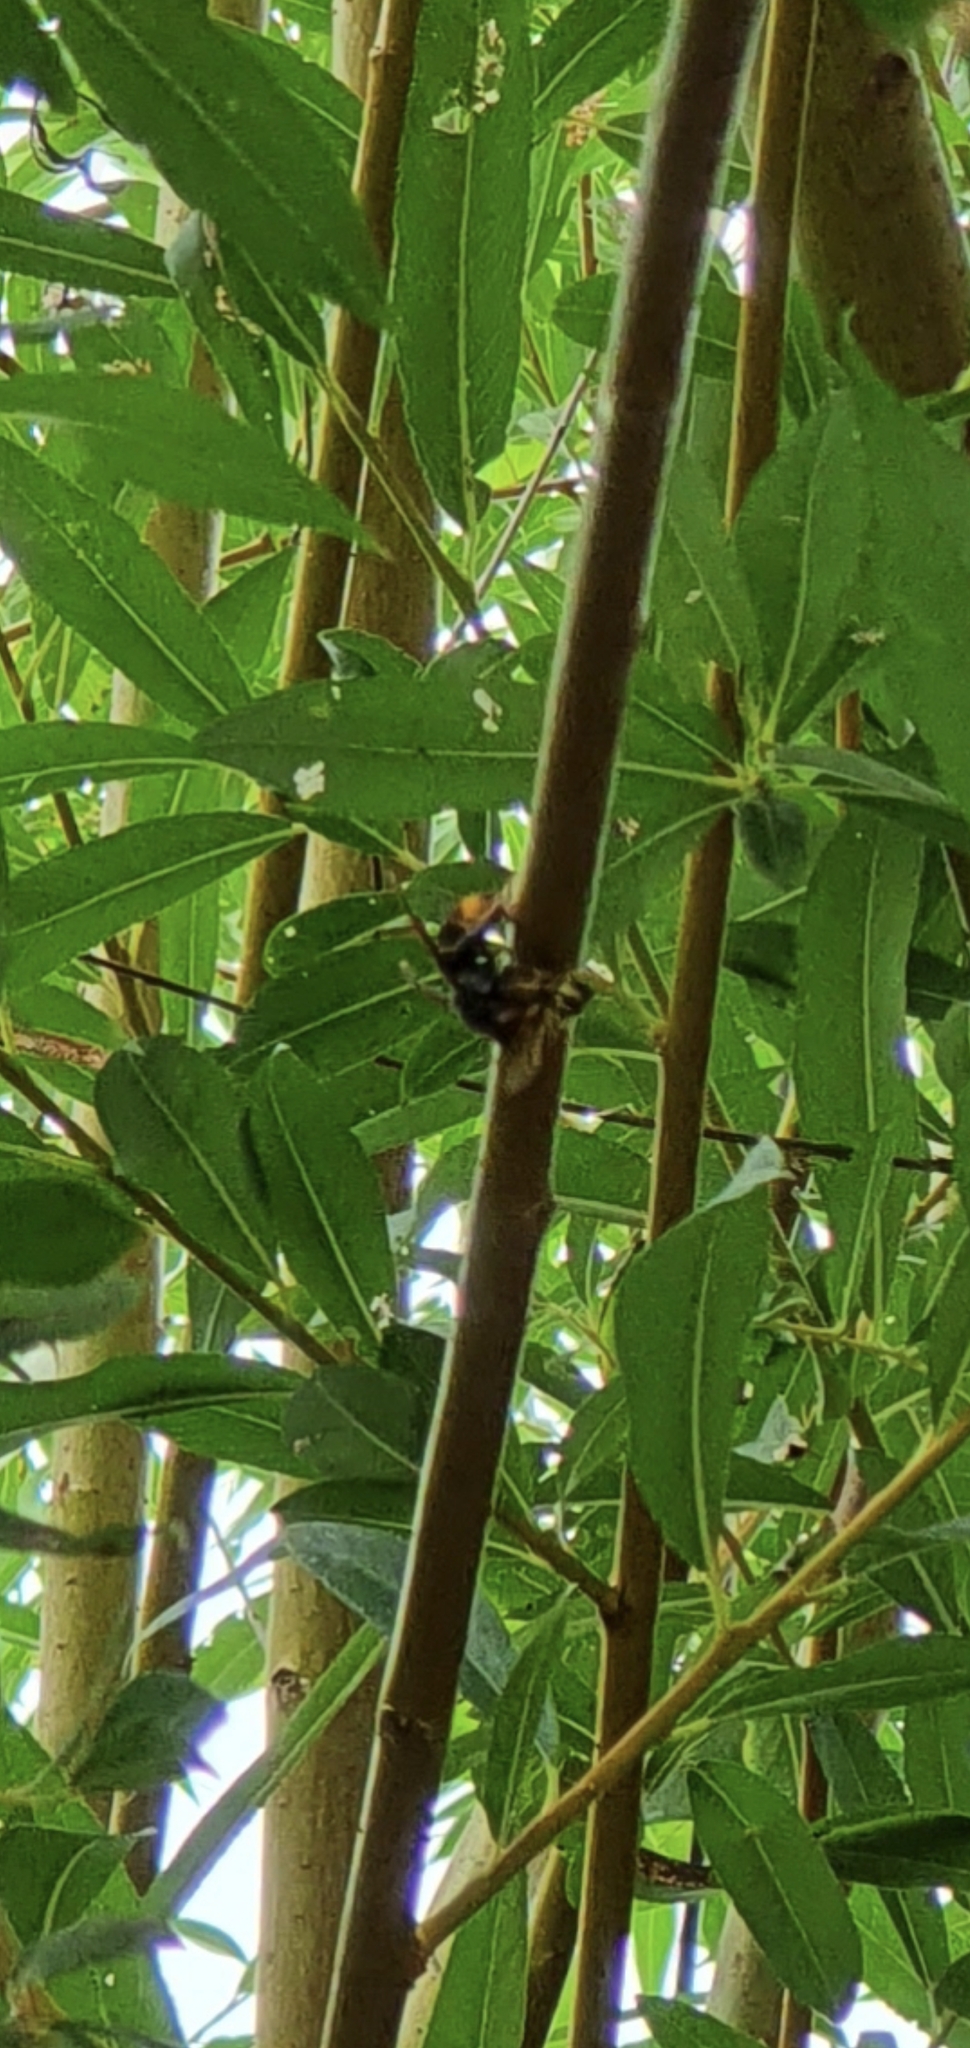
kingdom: Animalia
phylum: Arthropoda
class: Insecta
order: Hymenoptera
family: Vespidae
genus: Vespa
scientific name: Vespa velutina
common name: Asian hornet
